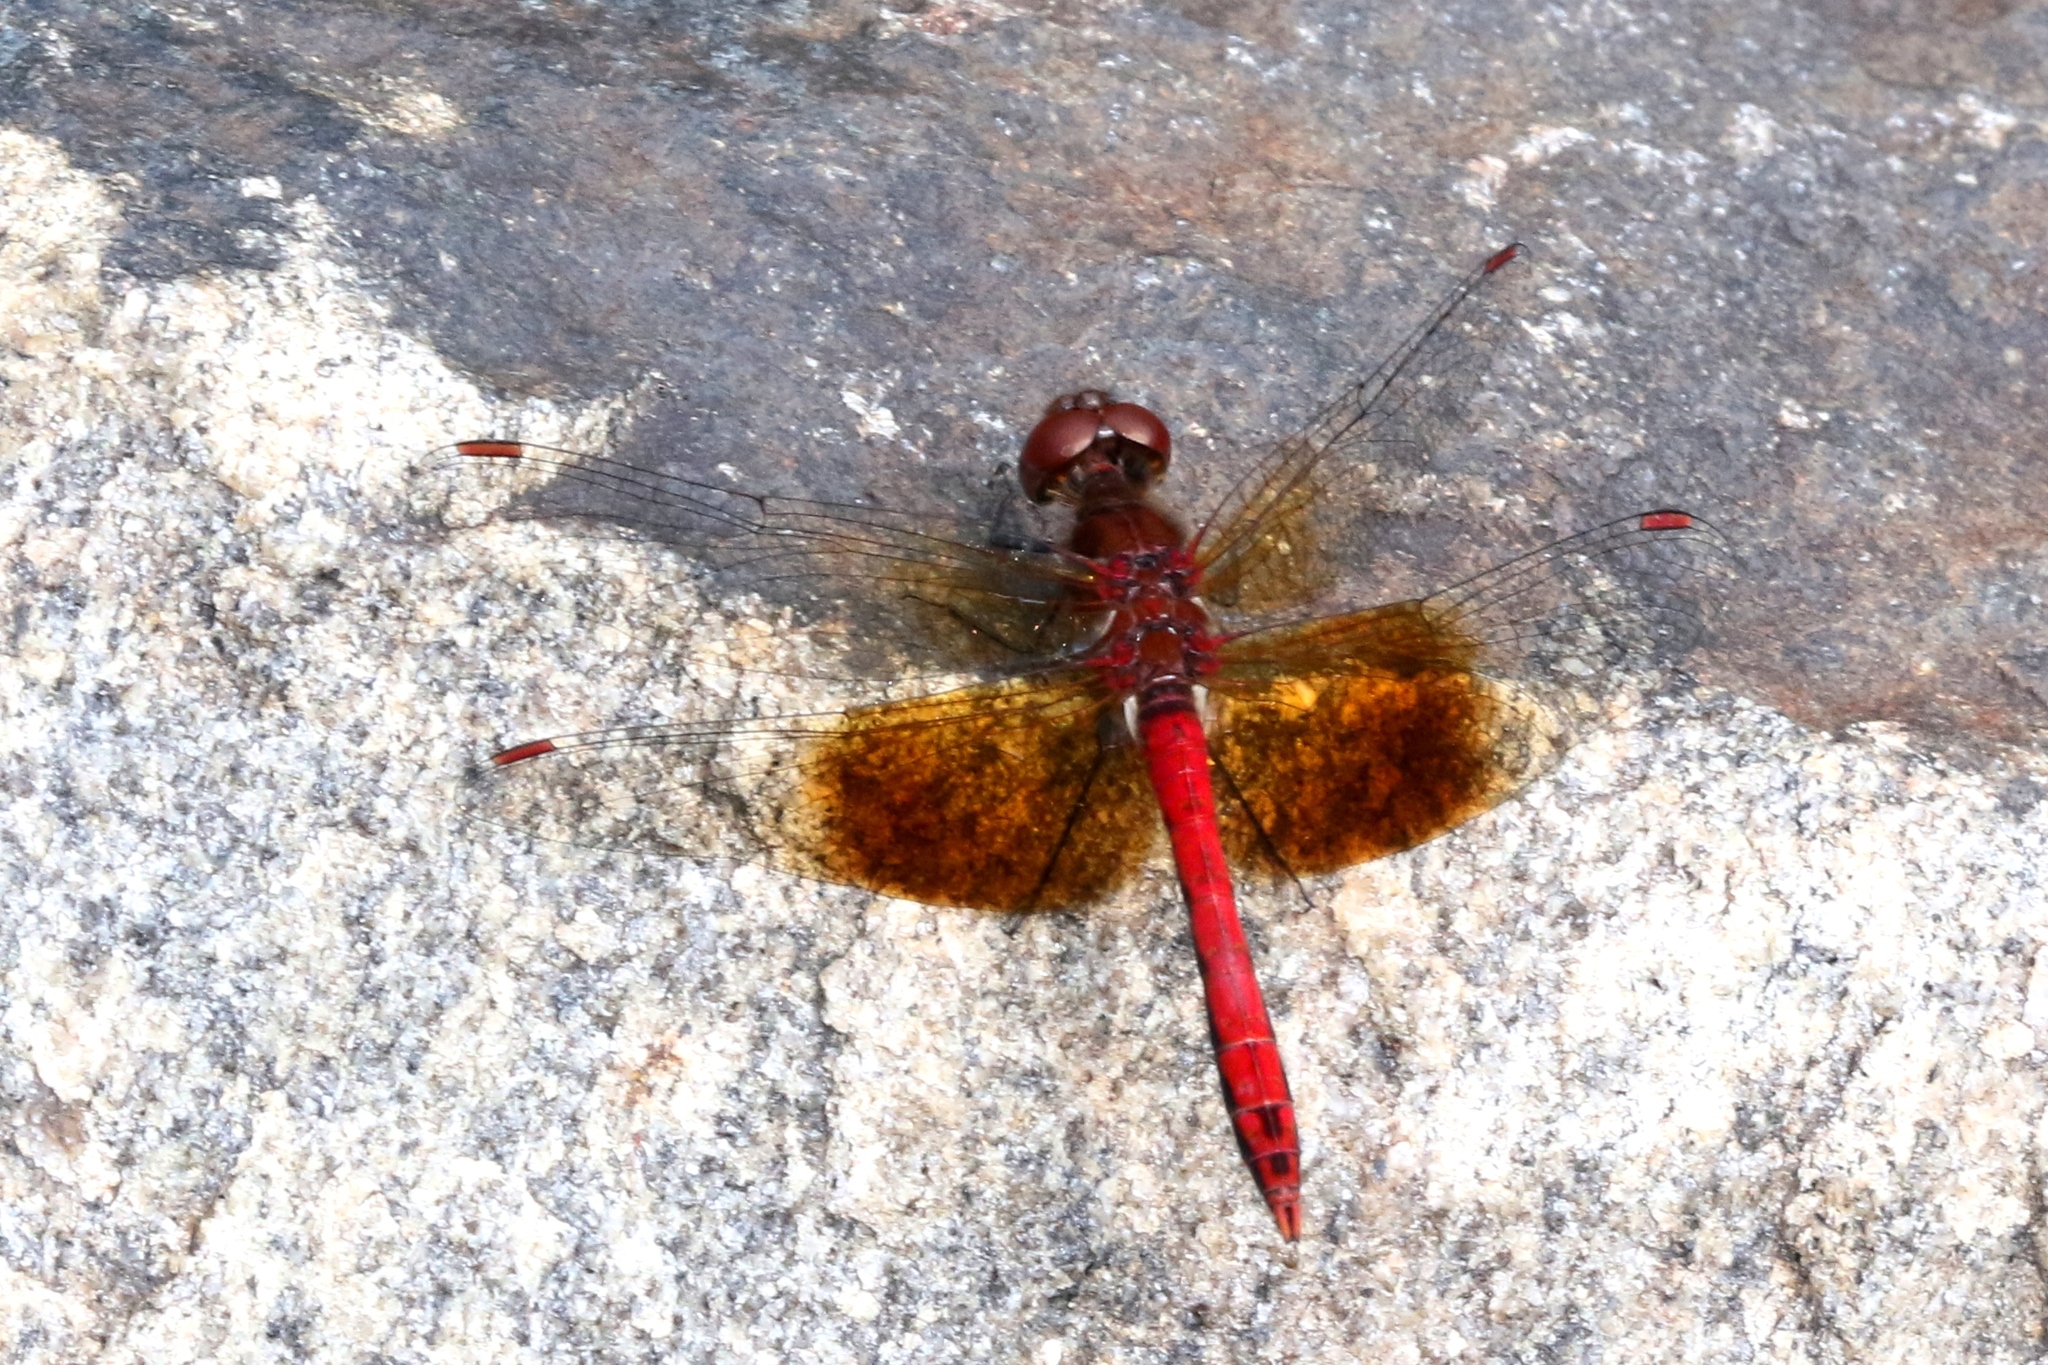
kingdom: Animalia
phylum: Arthropoda
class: Insecta
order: Odonata
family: Libellulidae
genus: Sympetrum
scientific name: Sympetrum semicinctum
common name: Band-winged meadowhawk
